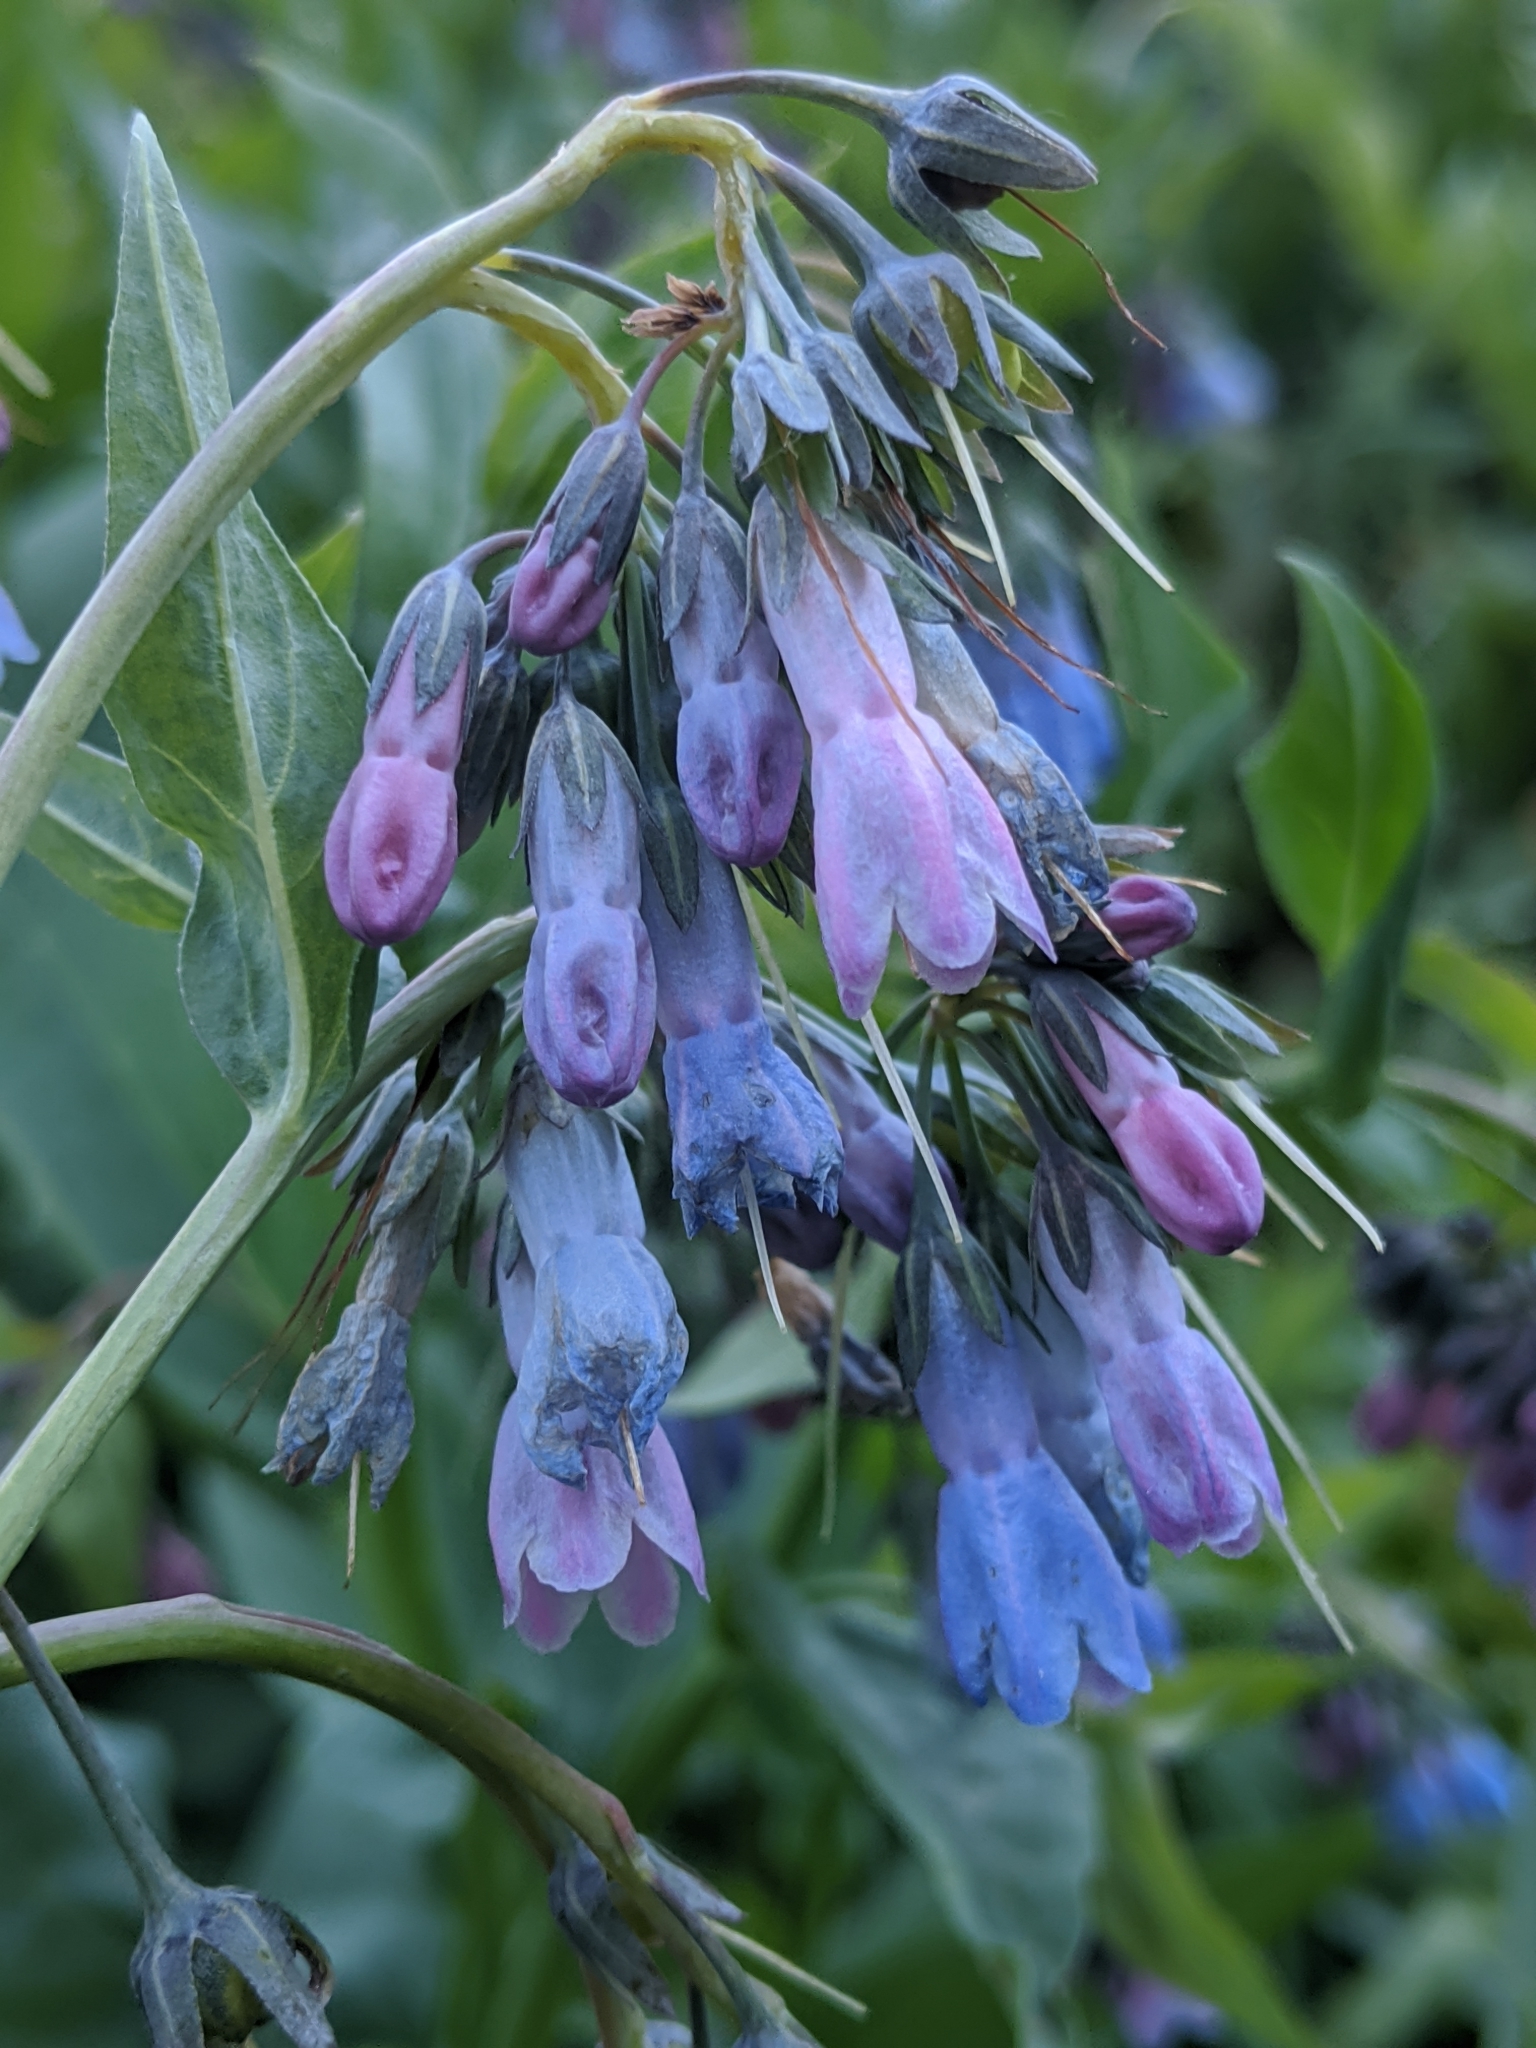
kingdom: Plantae
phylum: Tracheophyta
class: Magnoliopsida
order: Boraginales
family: Boraginaceae
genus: Mertensia
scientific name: Mertensia ciliata
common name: Tall chiming-bells
